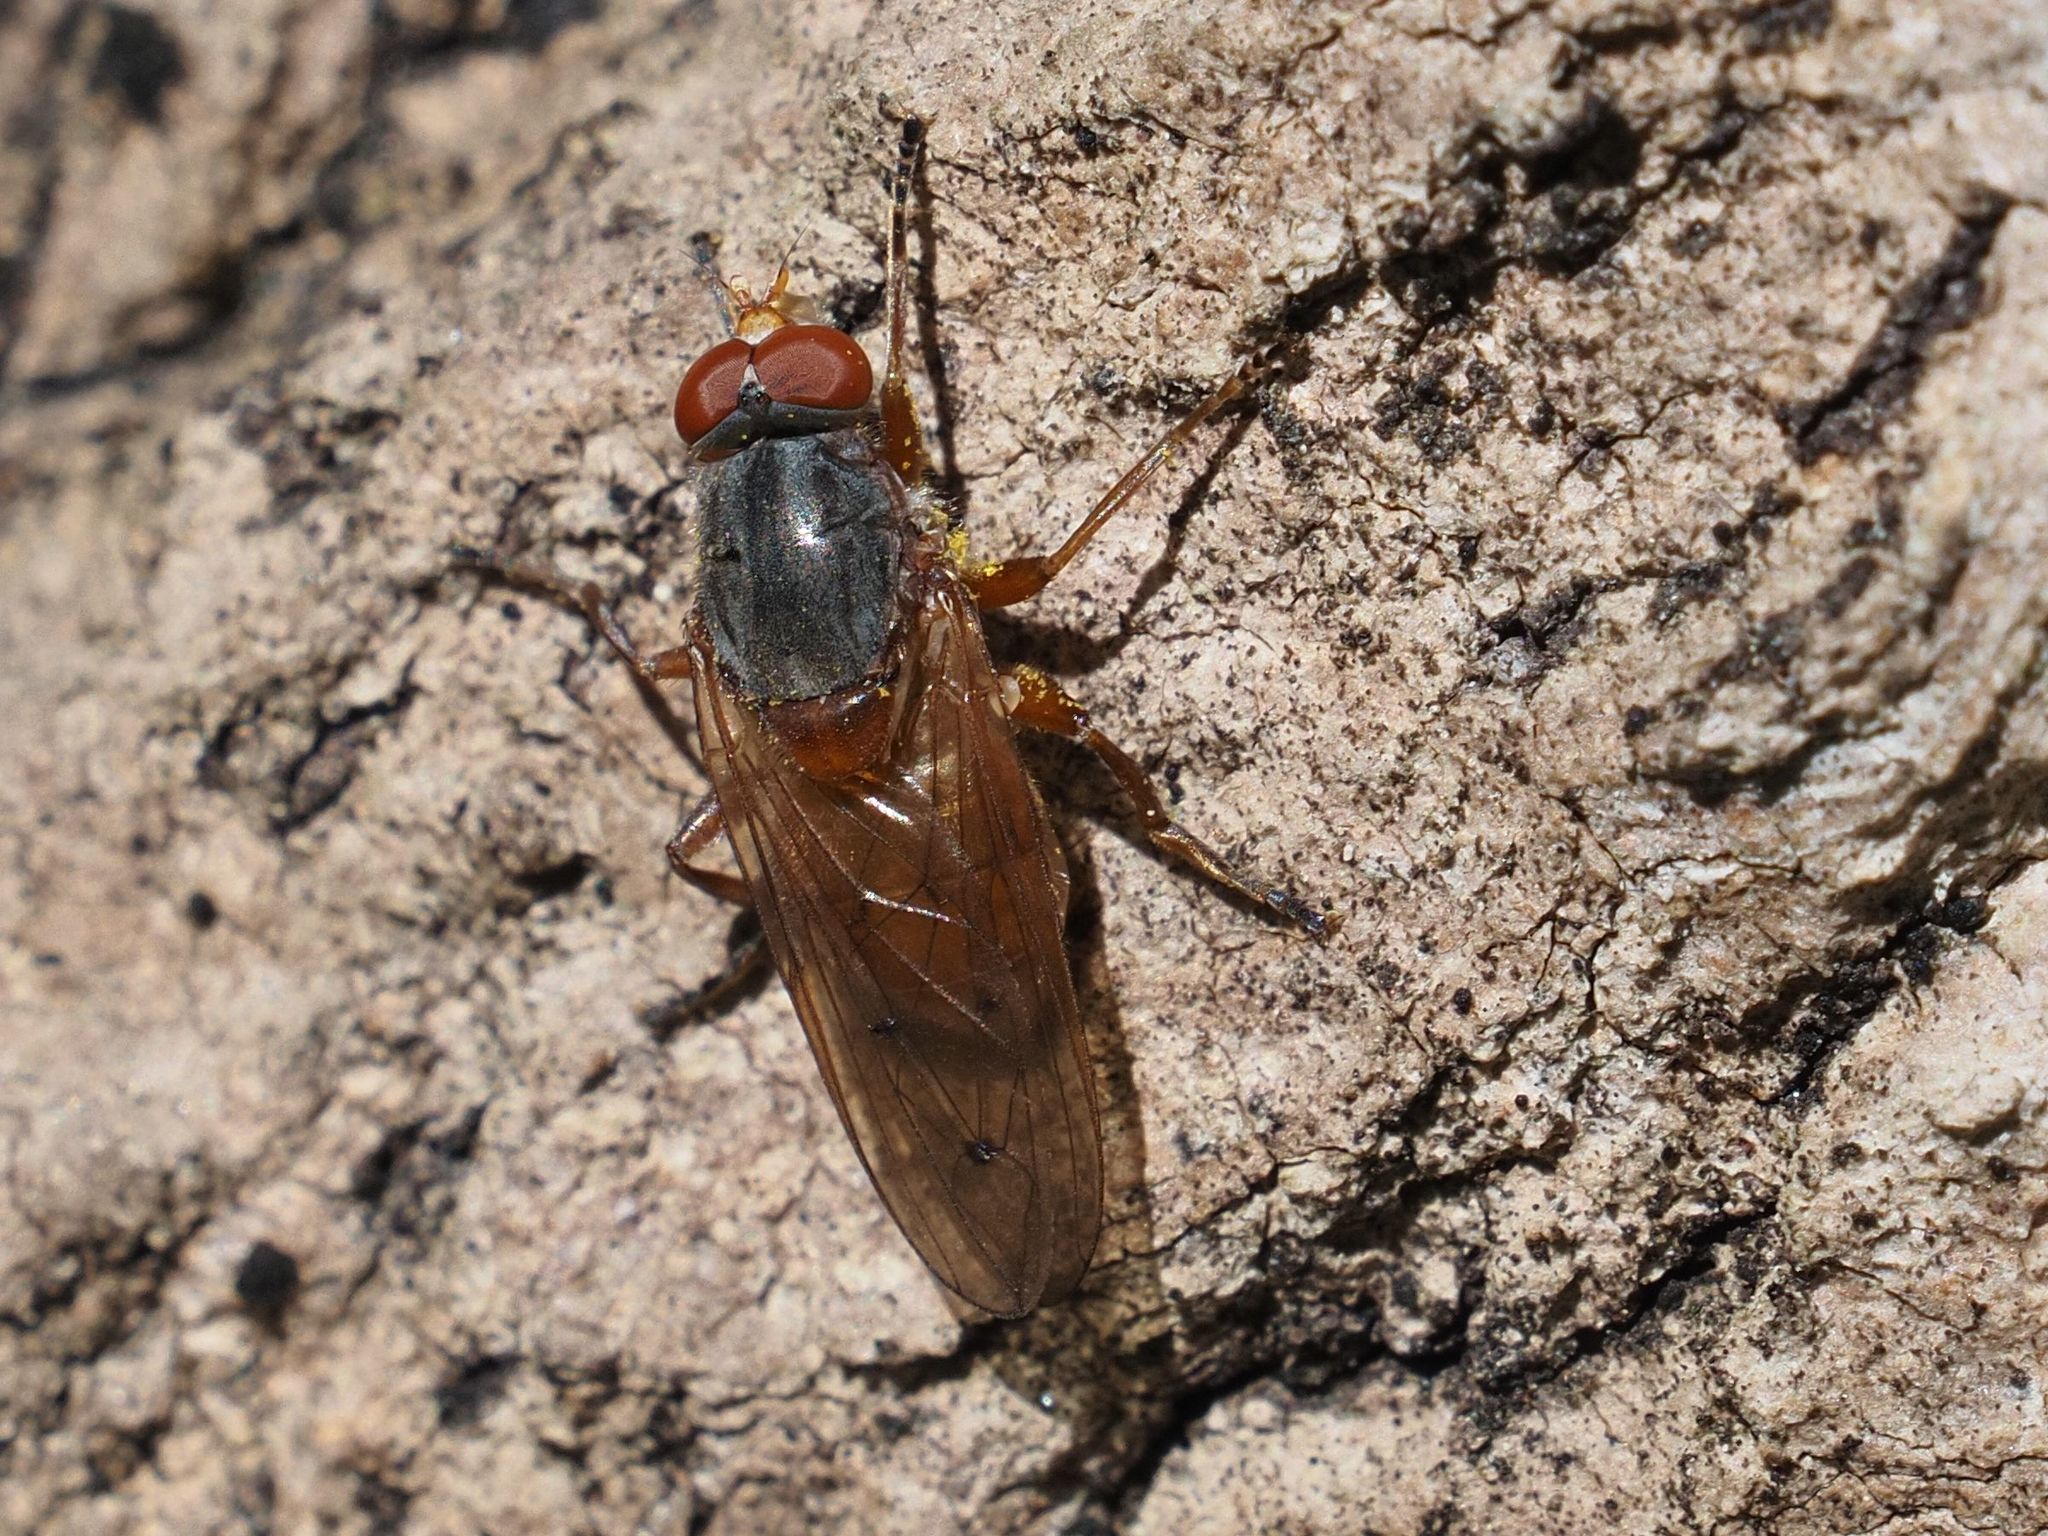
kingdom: Animalia
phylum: Arthropoda
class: Insecta
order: Diptera
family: Syrphidae
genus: Brachyopa
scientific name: Brachyopa maculipennis
